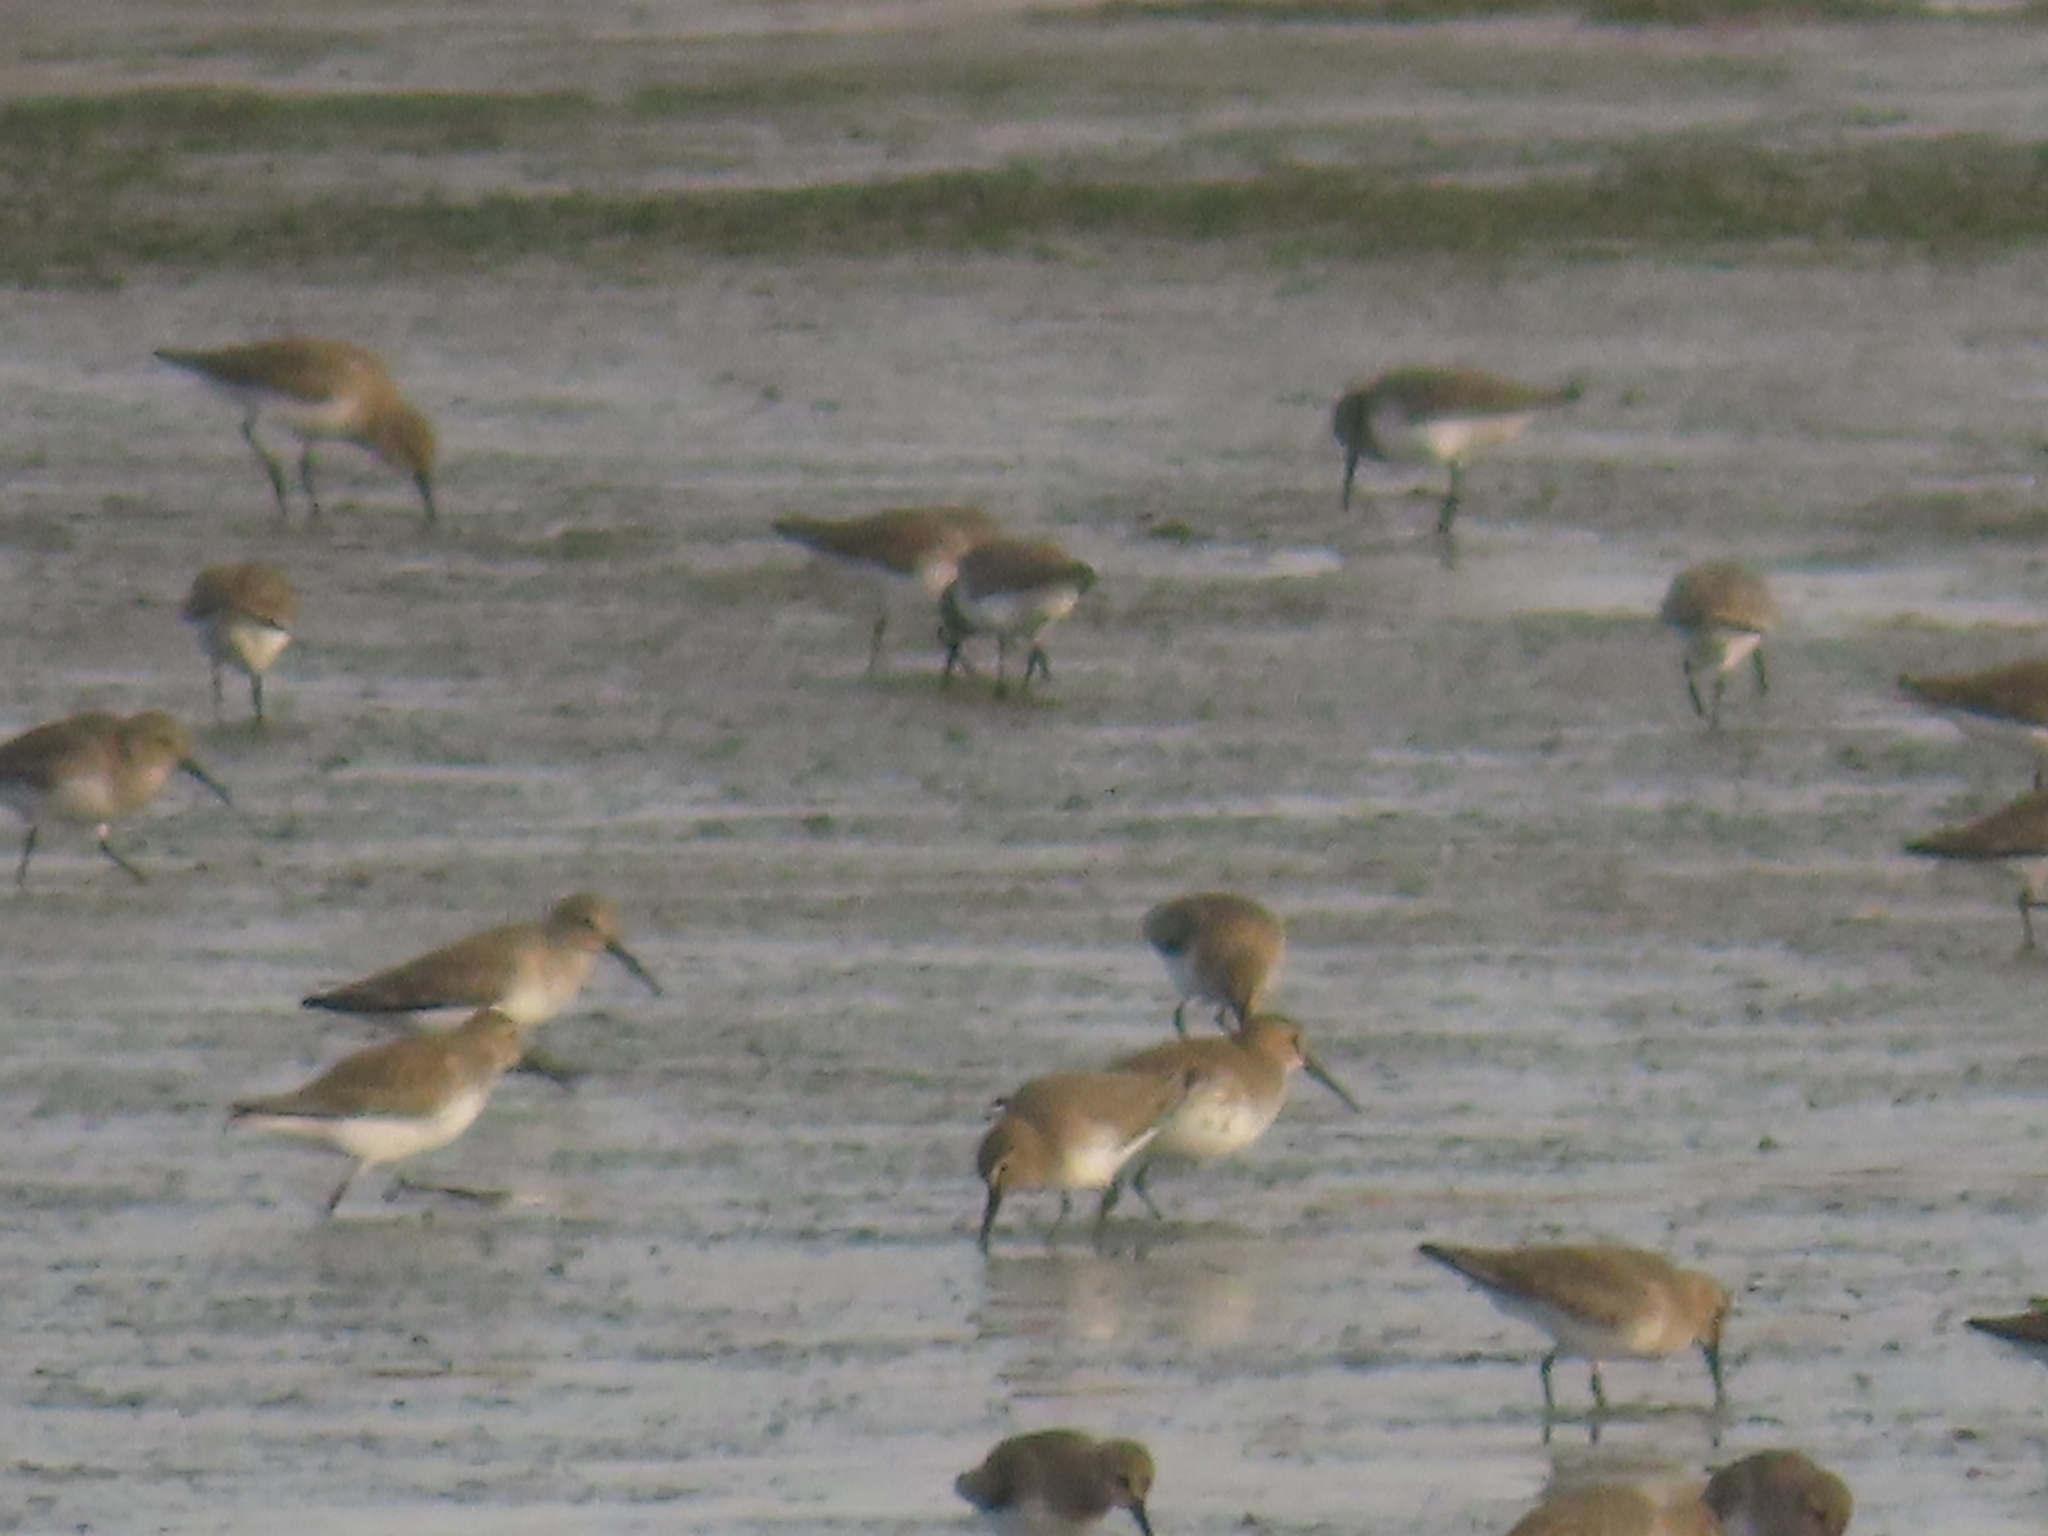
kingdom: Animalia
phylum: Chordata
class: Aves
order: Charadriiformes
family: Scolopacidae
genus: Calidris
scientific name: Calidris alpina
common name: Dunlin
